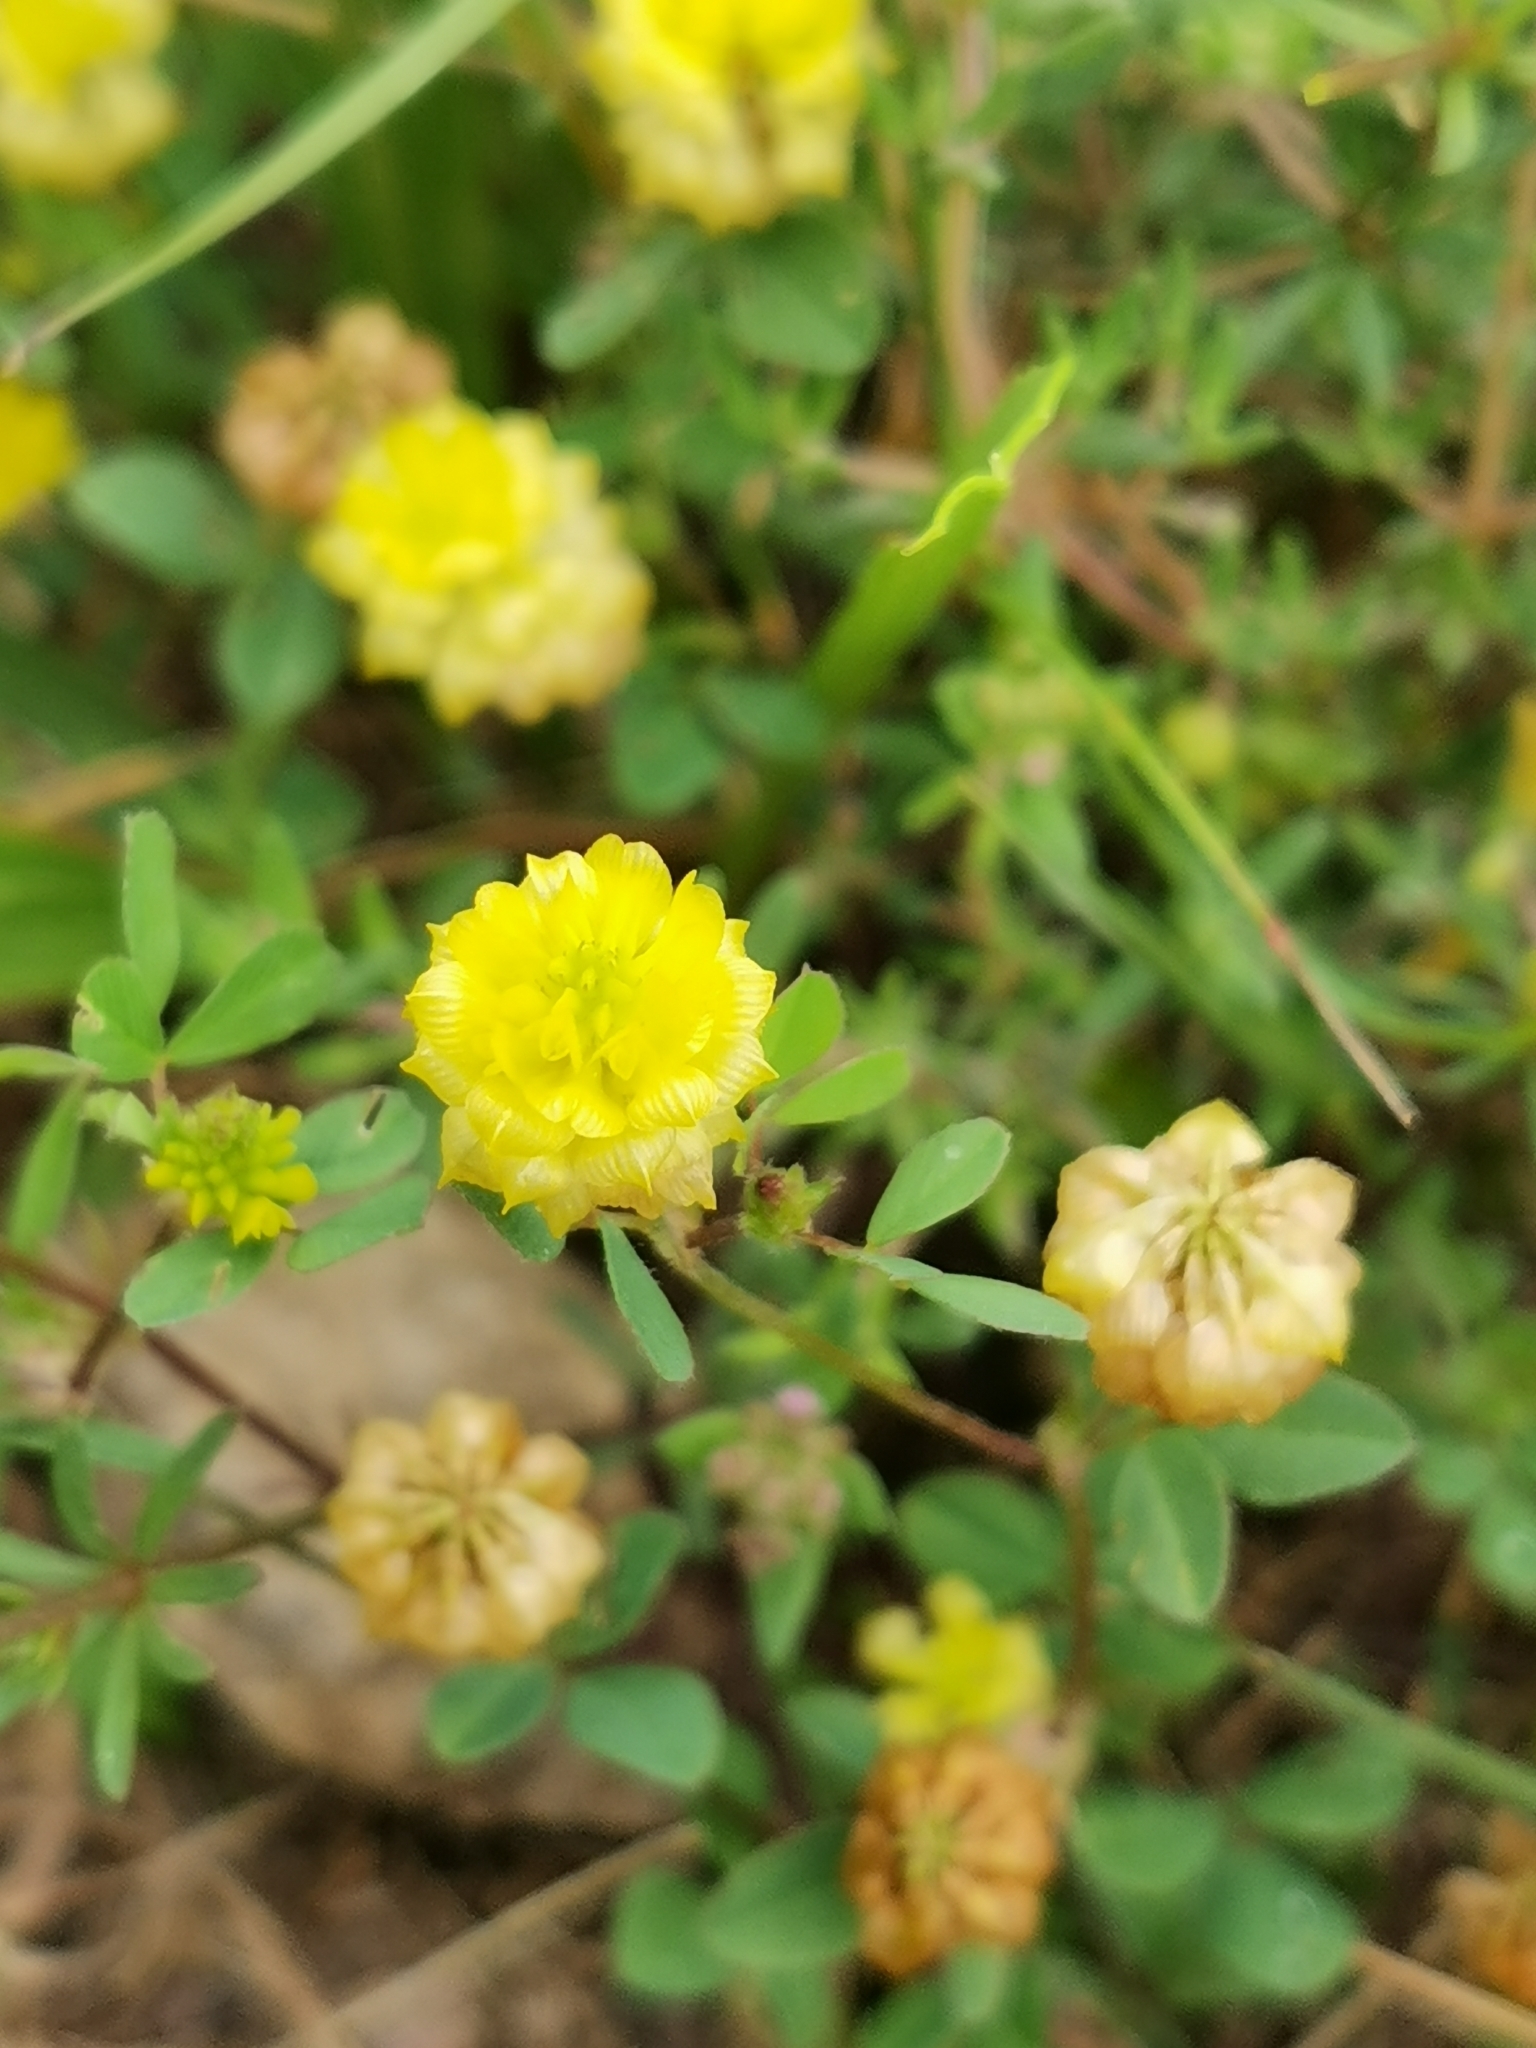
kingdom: Plantae
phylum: Tracheophyta
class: Magnoliopsida
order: Fabales
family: Fabaceae
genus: Trifolium
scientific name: Trifolium campestre
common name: Field clover
